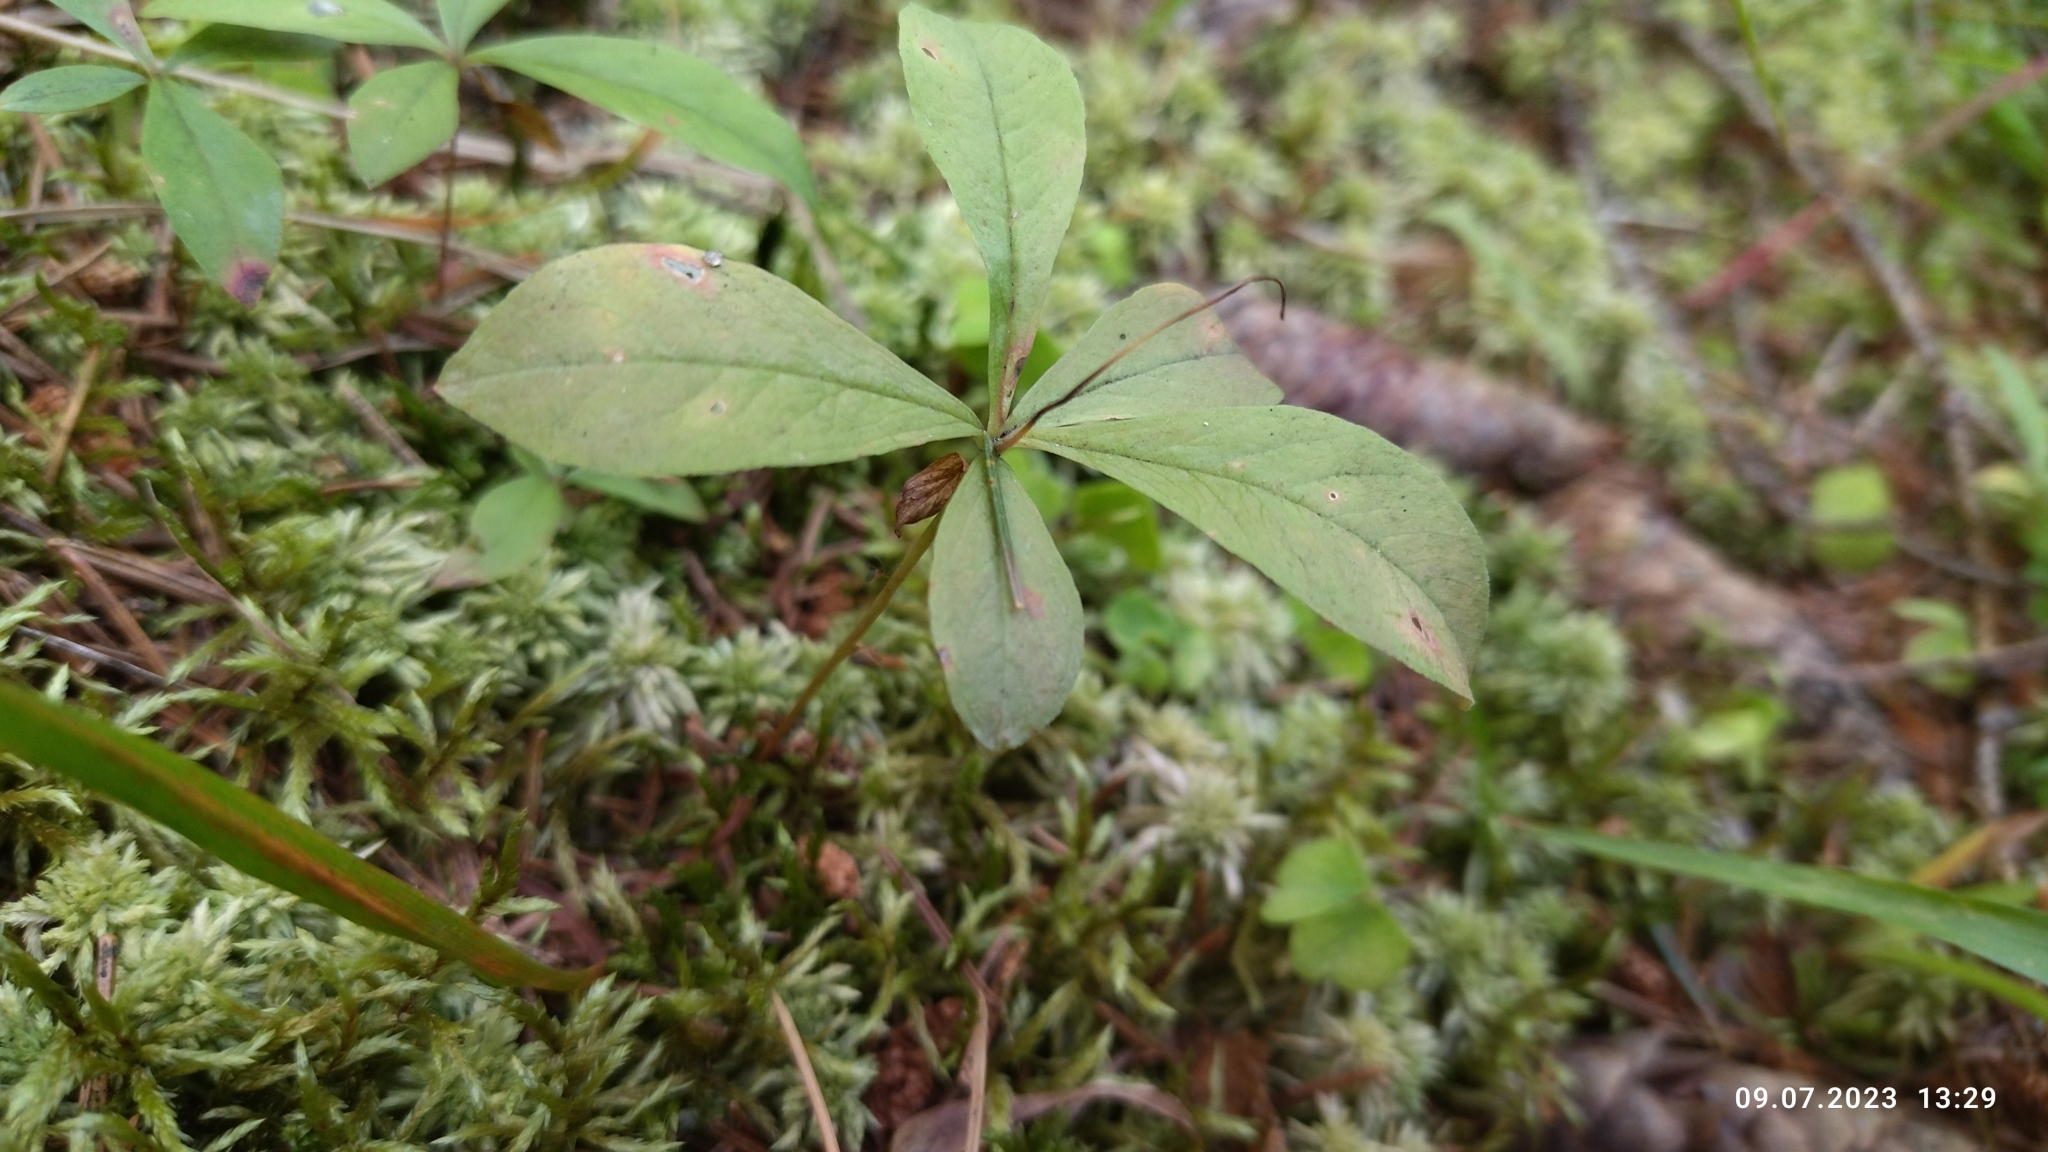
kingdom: Plantae
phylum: Tracheophyta
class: Magnoliopsida
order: Ericales
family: Primulaceae
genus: Lysimachia
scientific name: Lysimachia europaea
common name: Arctic starflower
